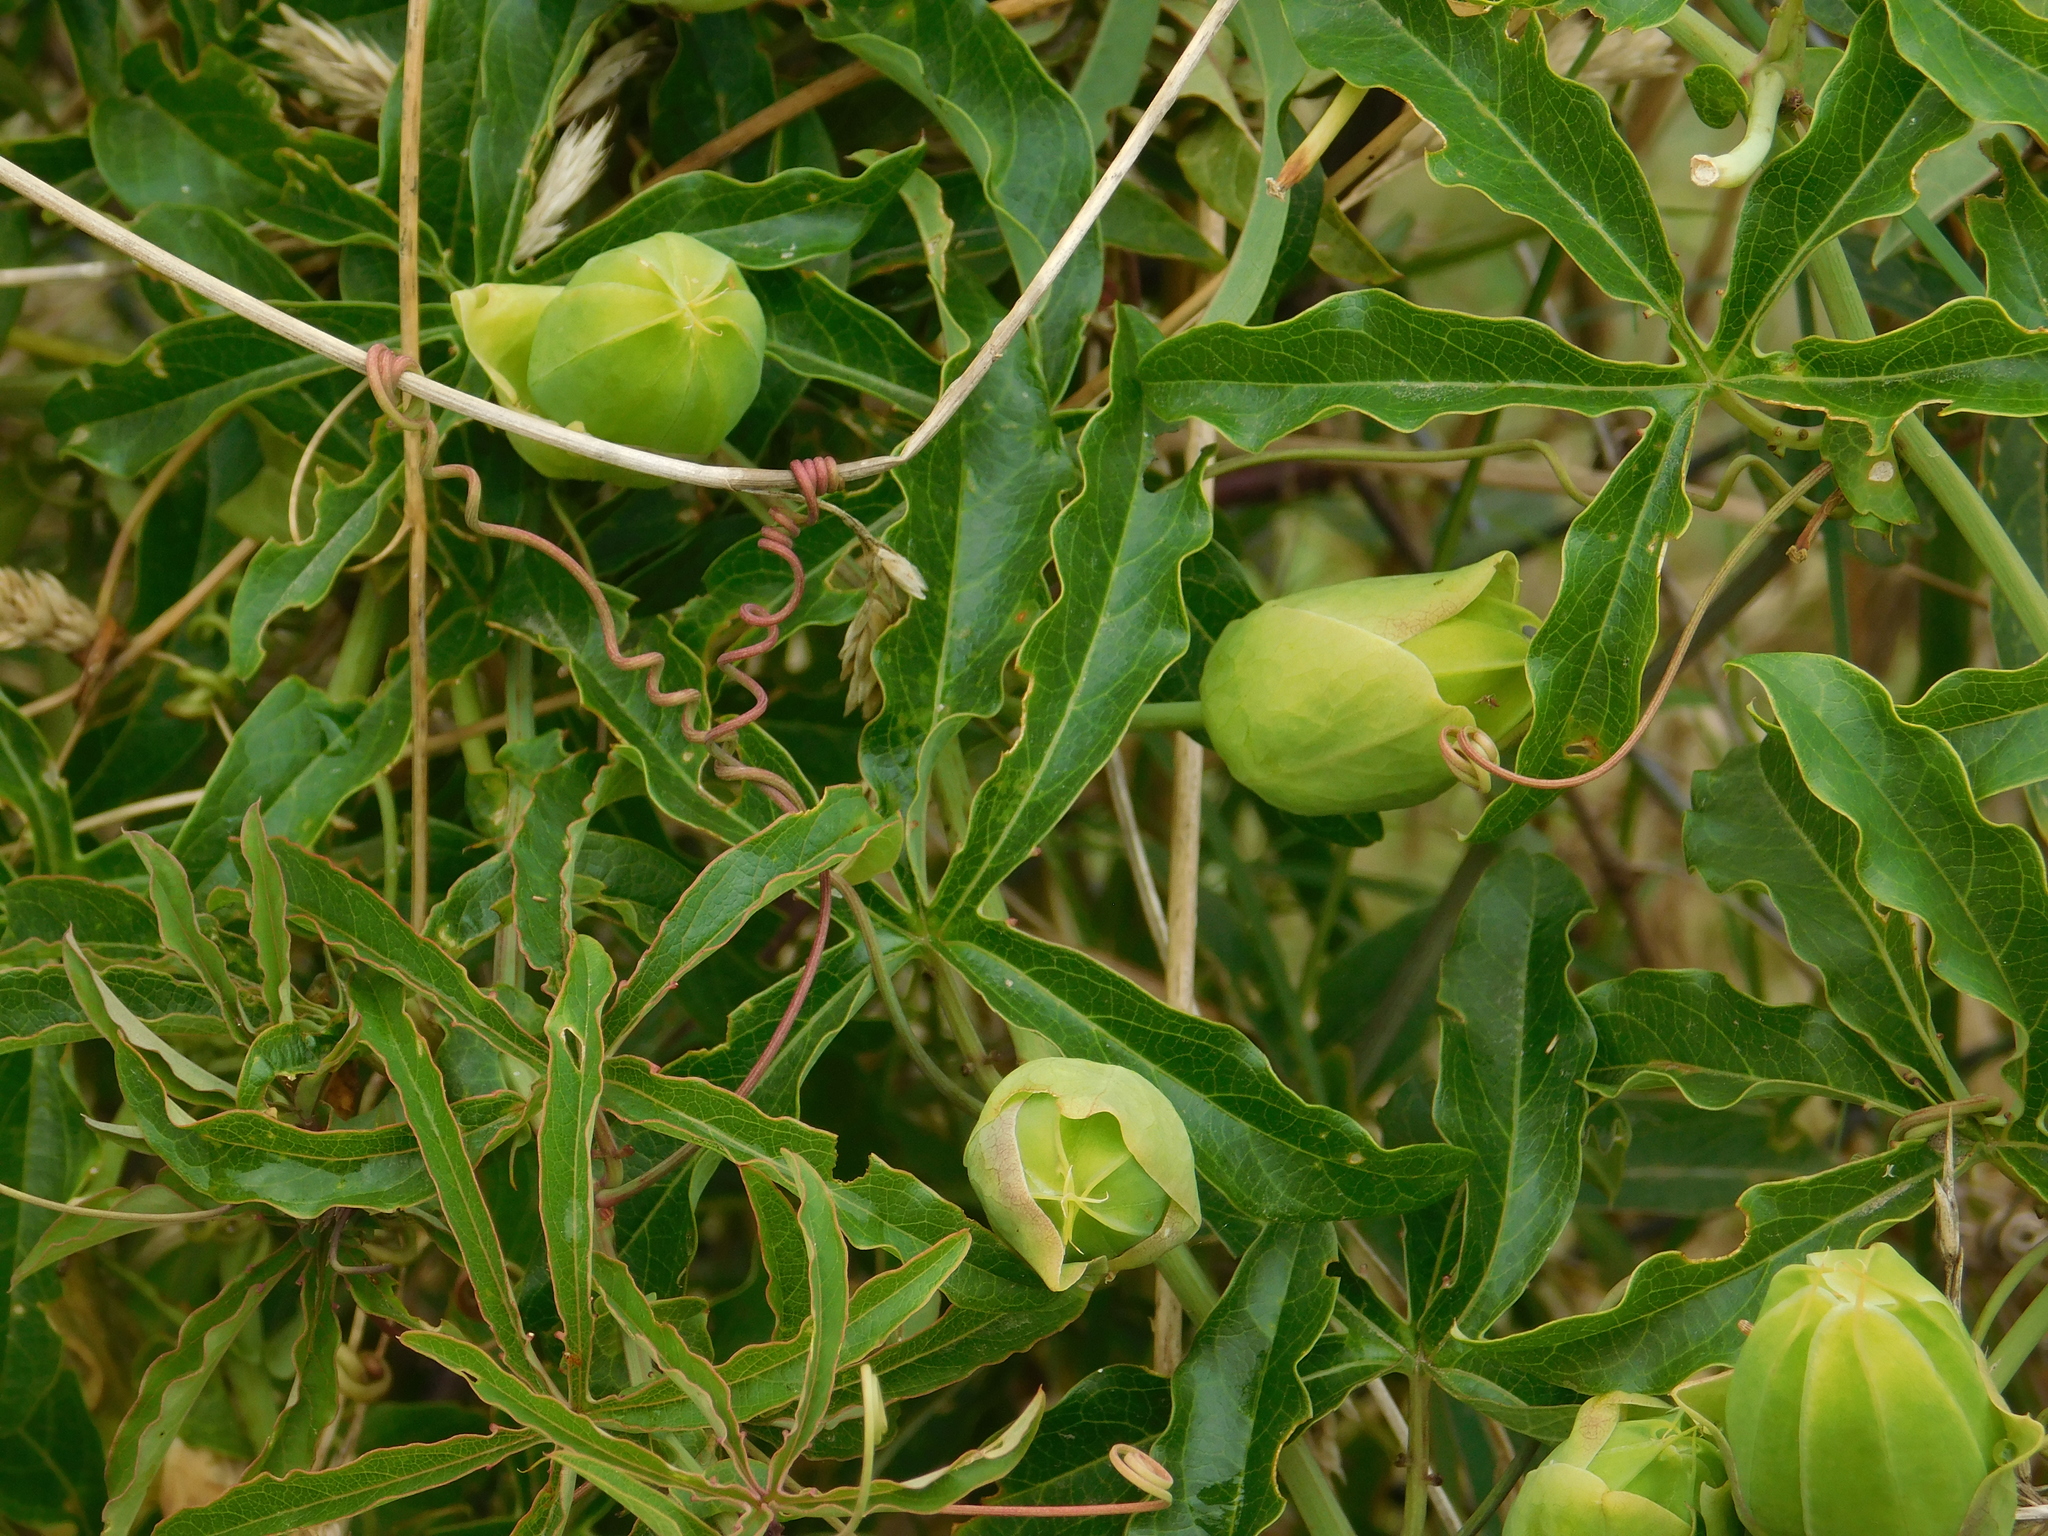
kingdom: Plantae
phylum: Tracheophyta
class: Magnoliopsida
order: Malpighiales
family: Passifloraceae
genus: Passiflora
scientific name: Passiflora caerulea
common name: Blue passionflower
